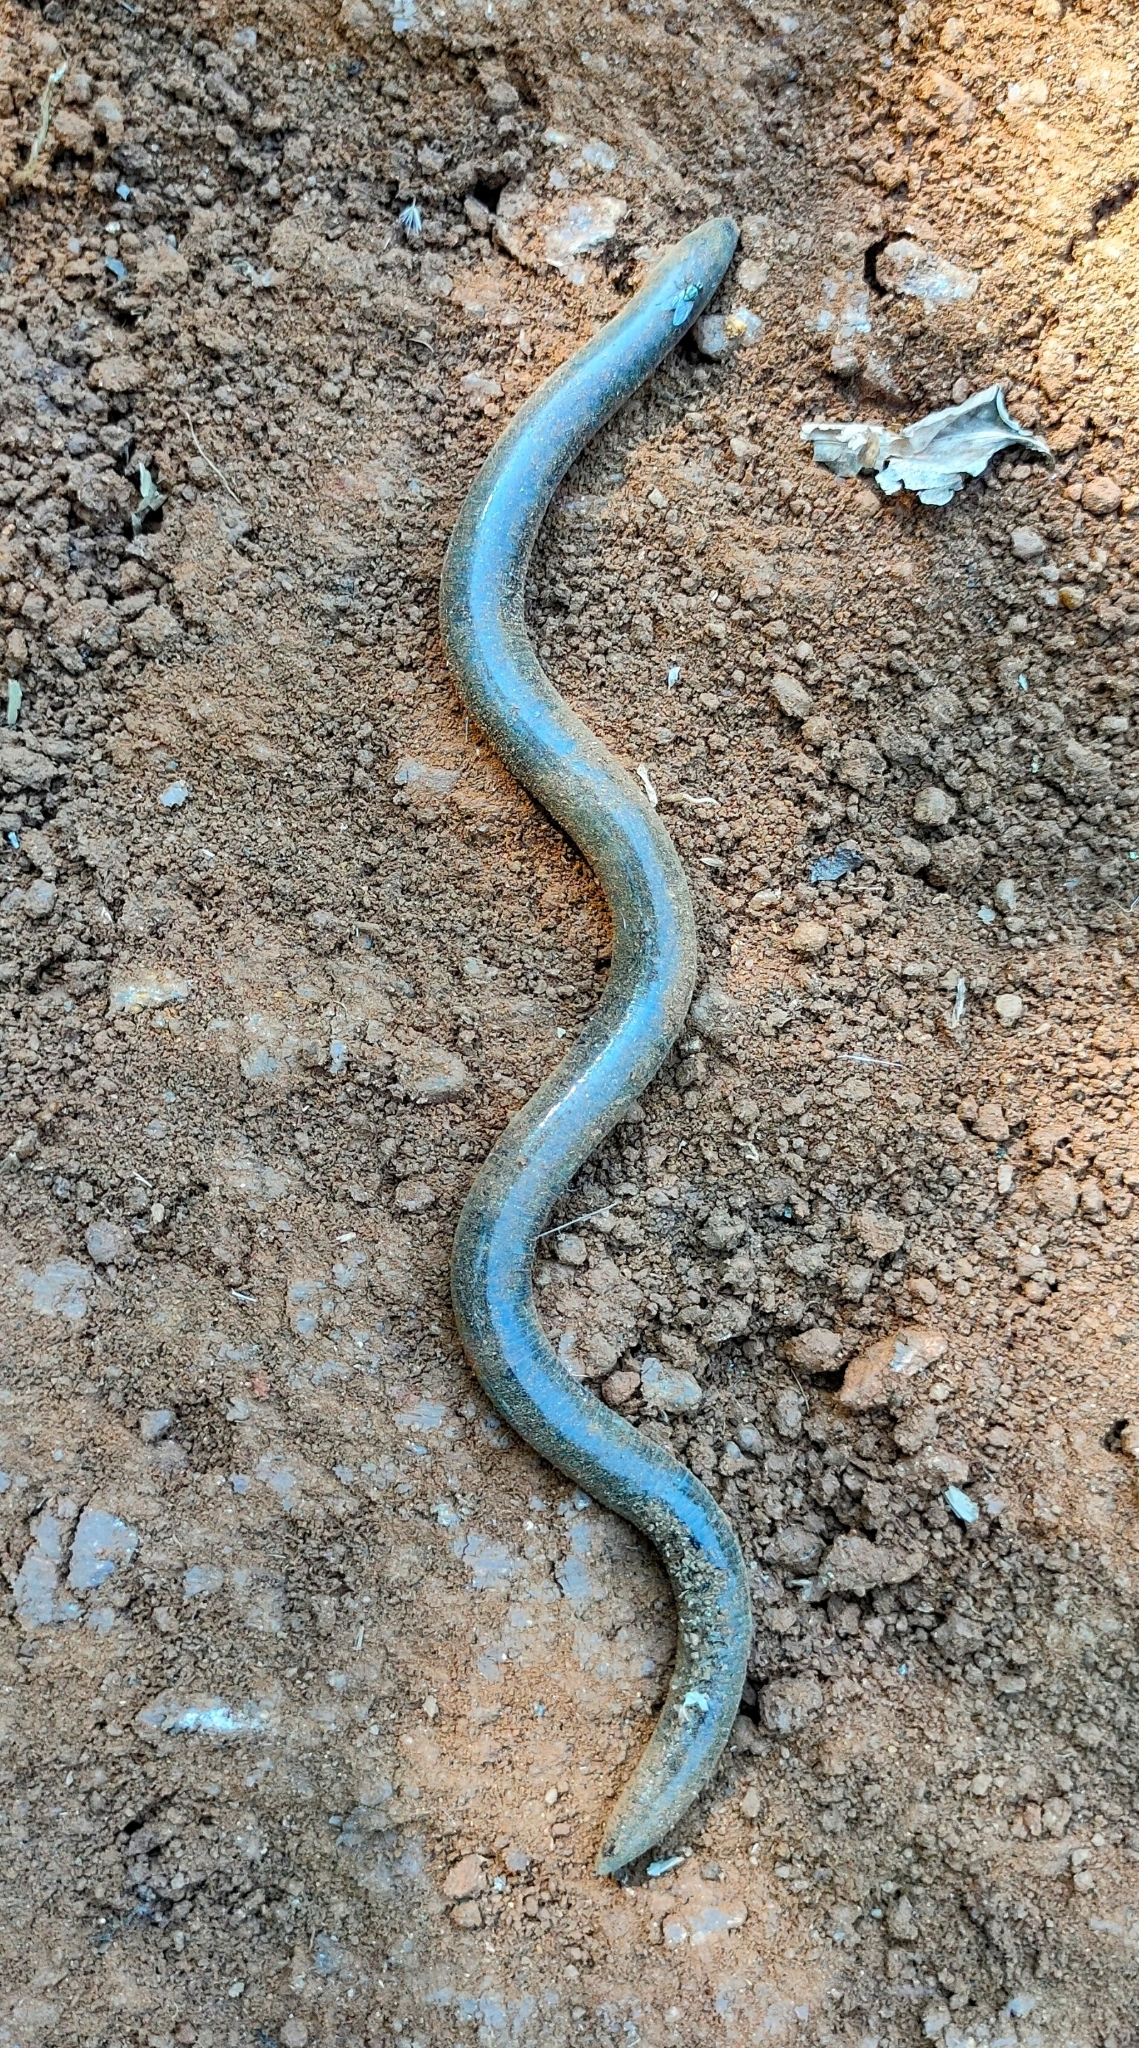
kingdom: Animalia
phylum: Chordata
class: Amphibia
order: Gymnophiona
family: Ichthyophiidae
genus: Uraeotyphlus
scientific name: Uraeotyphlus
